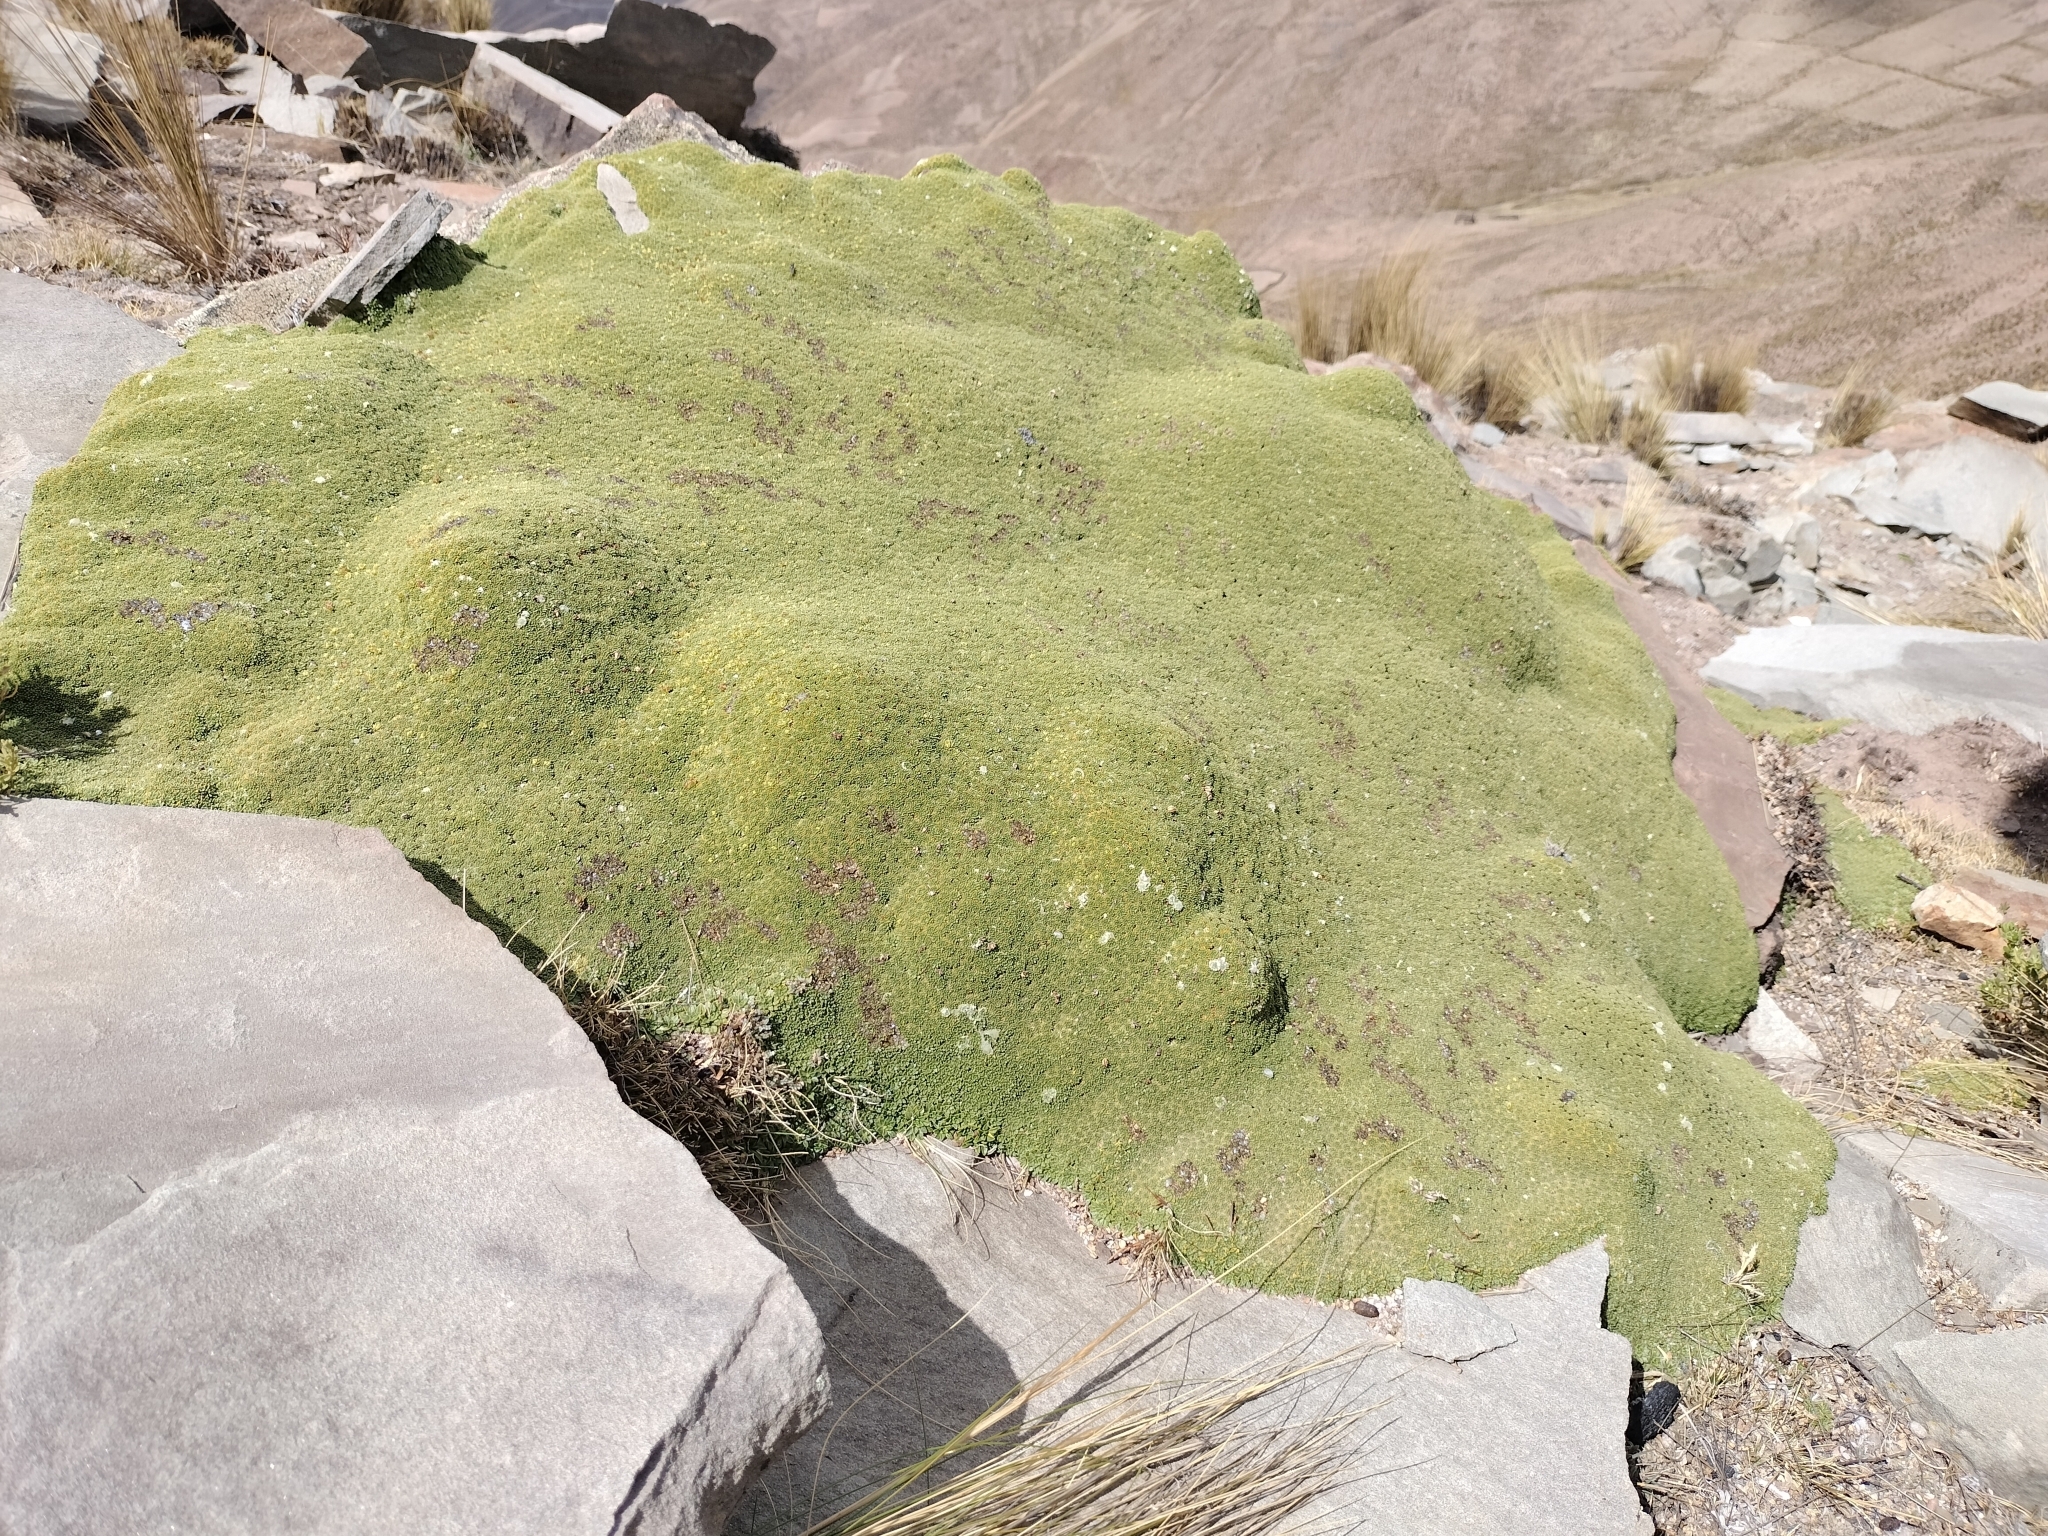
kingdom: Plantae
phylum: Tracheophyta
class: Magnoliopsida
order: Apiales
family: Apiaceae
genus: Azorella
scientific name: Azorella compacta
